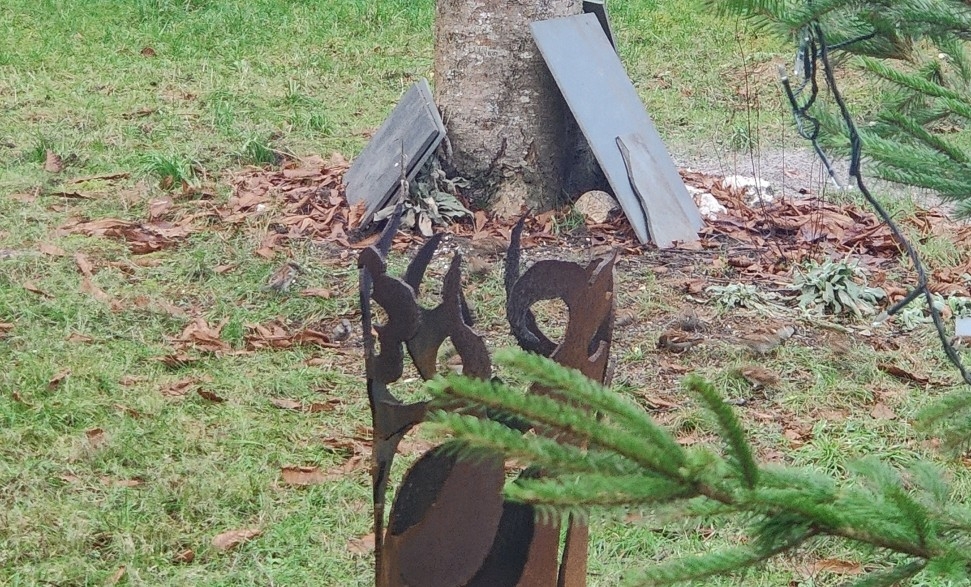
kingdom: Animalia
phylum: Chordata
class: Aves
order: Passeriformes
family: Passeridae
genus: Passer
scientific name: Passer domesticus
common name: House sparrow
